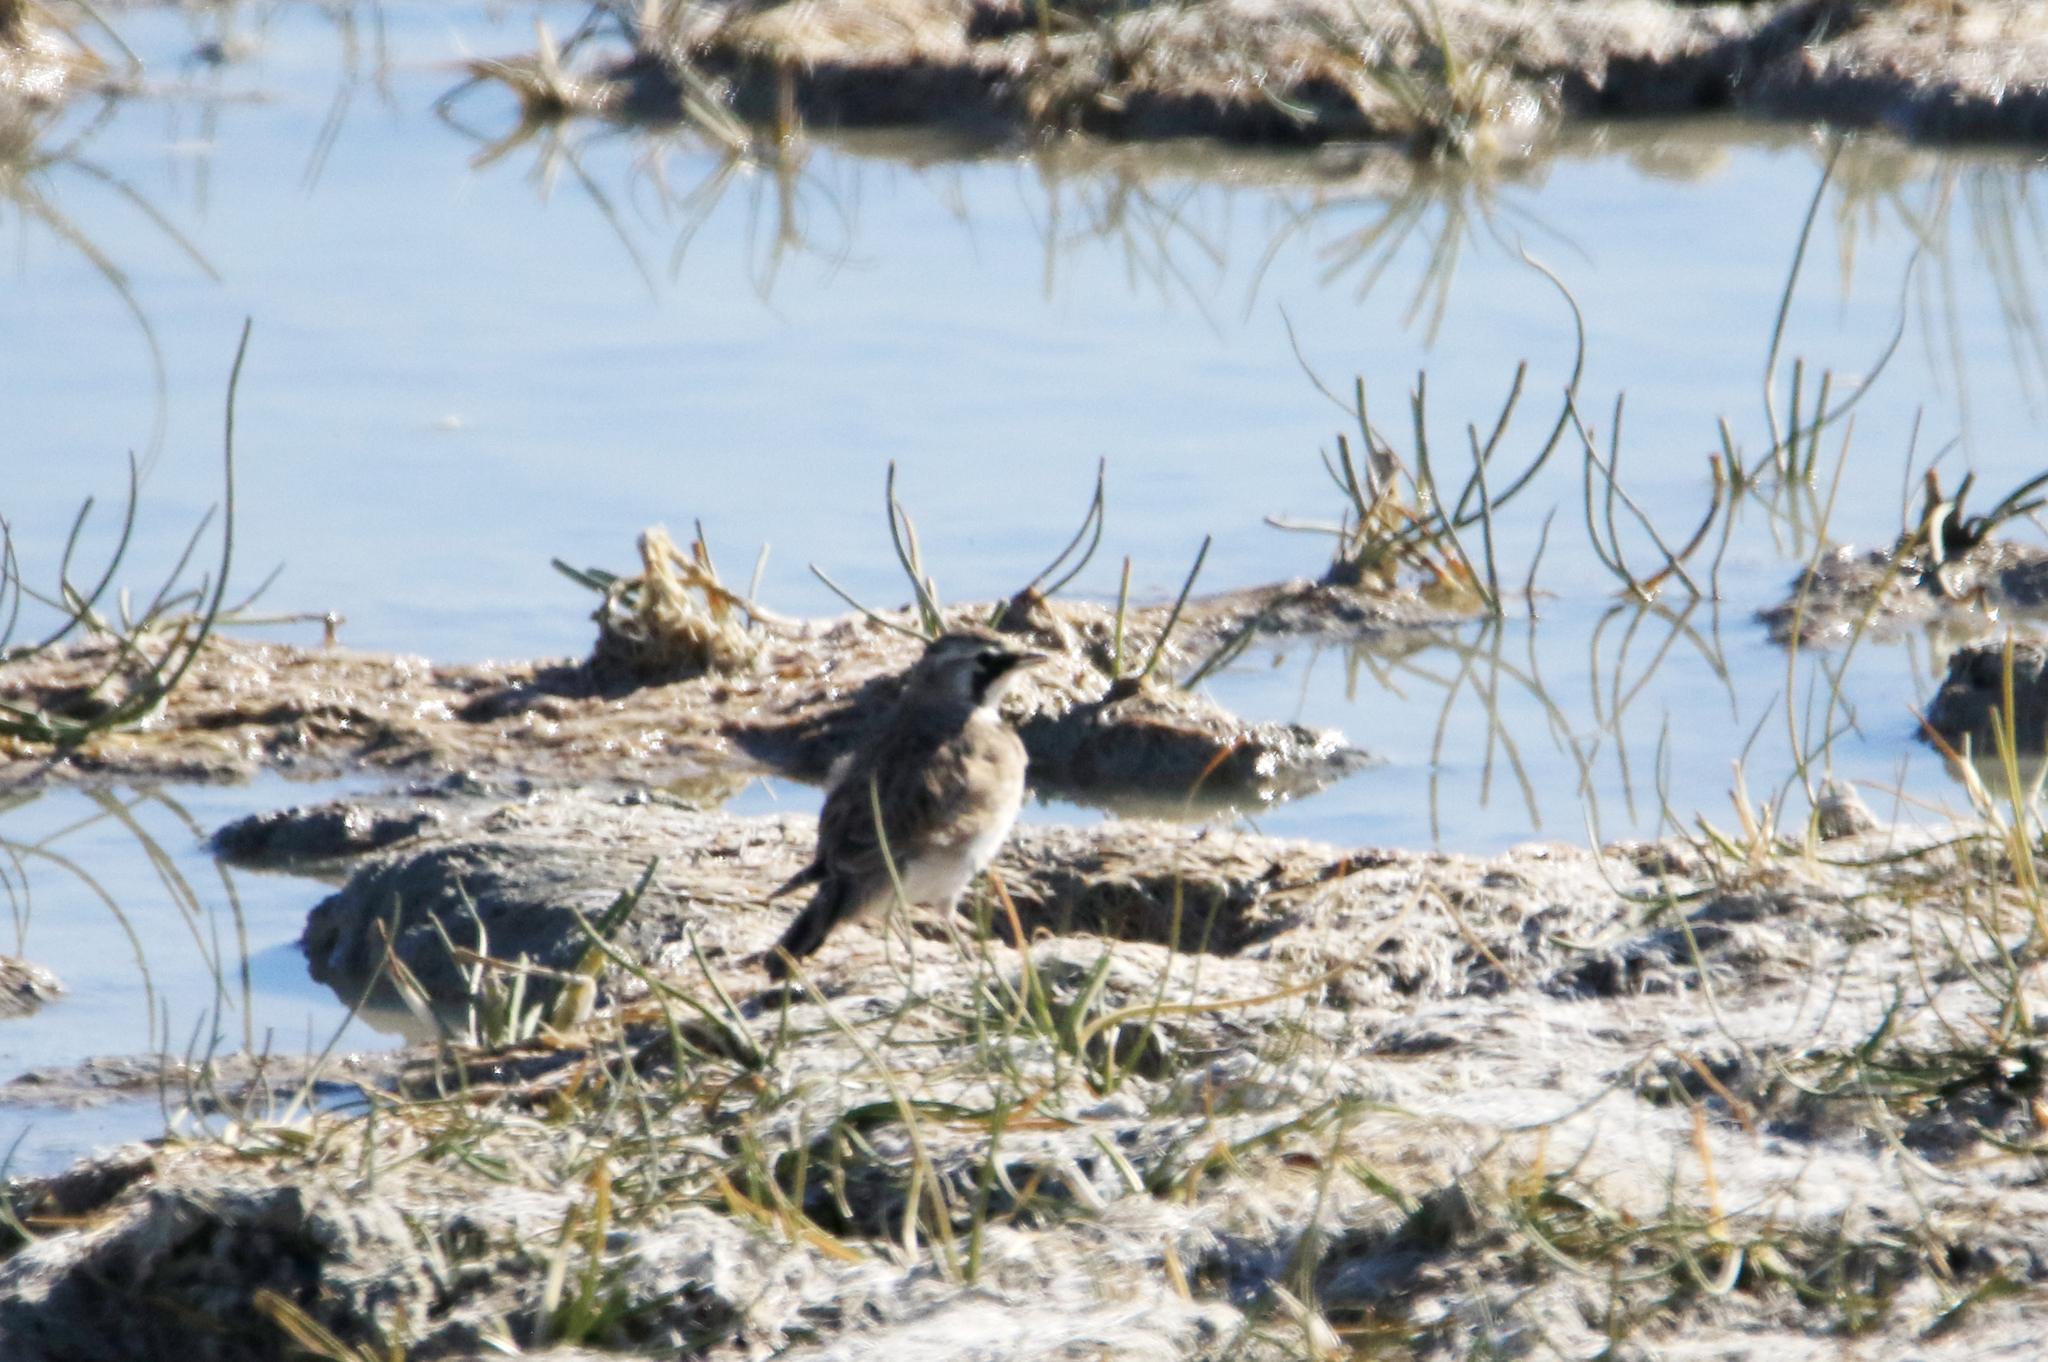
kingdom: Animalia
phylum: Chordata
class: Aves
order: Passeriformes
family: Alaudidae
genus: Eremophila
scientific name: Eremophila alpestris
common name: Horned lark
